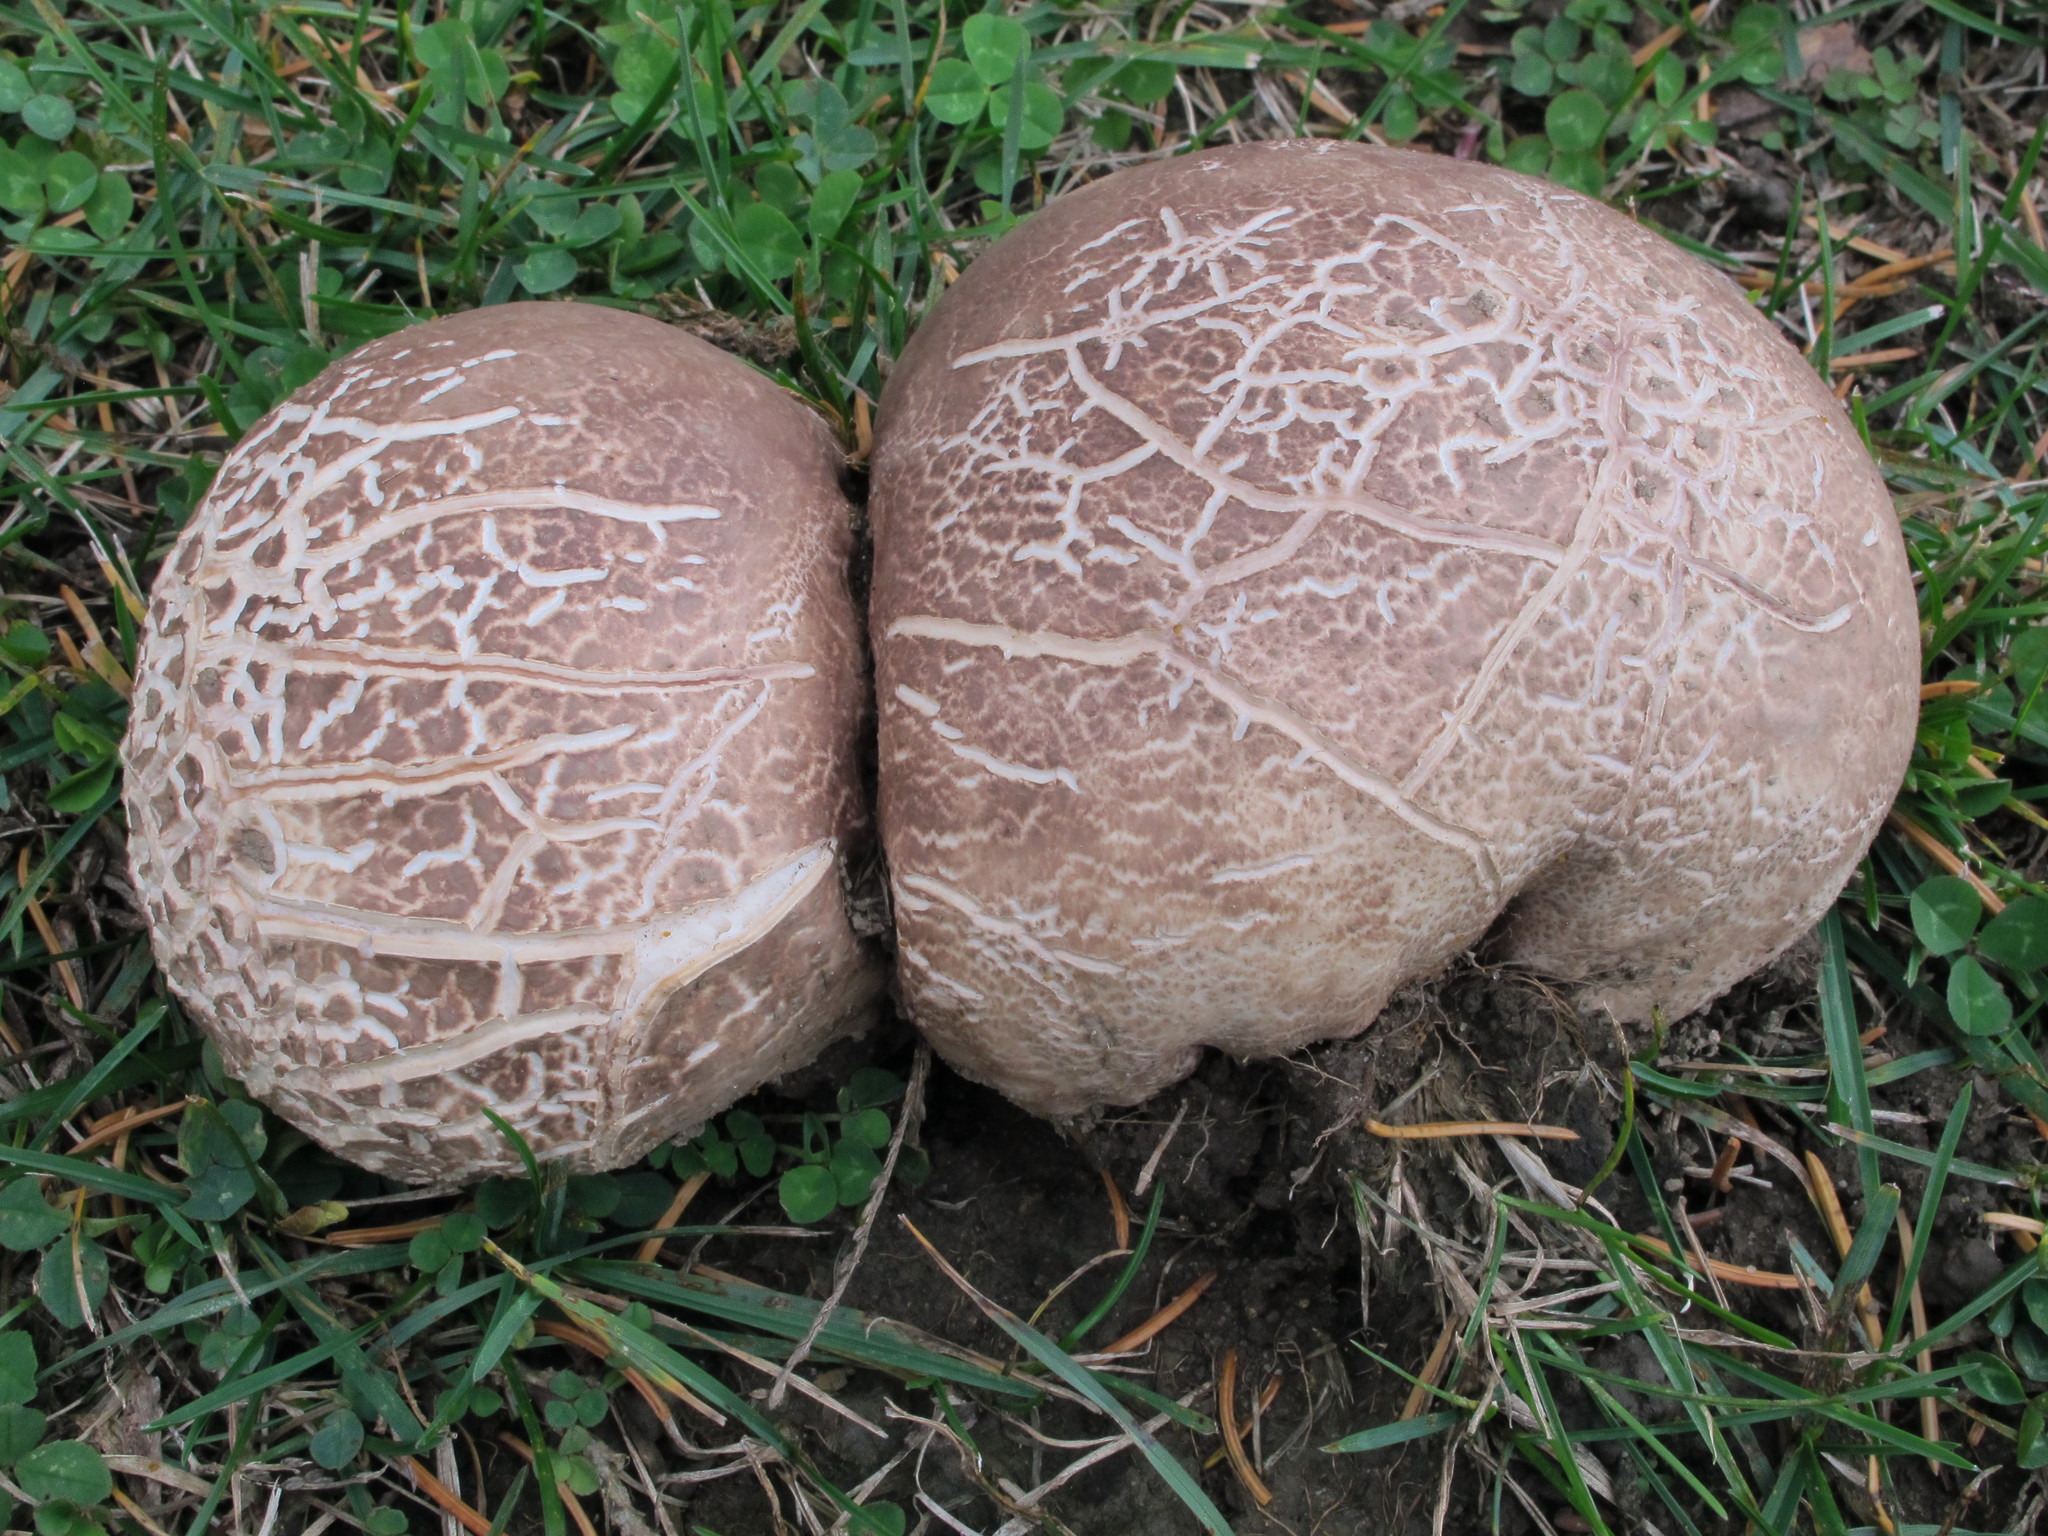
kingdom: Fungi
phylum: Basidiomycota
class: Agaricomycetes
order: Agaricales
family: Lycoperdaceae
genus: Calvatia
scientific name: Calvatia cyathiformis
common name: Purple-spored puffball
